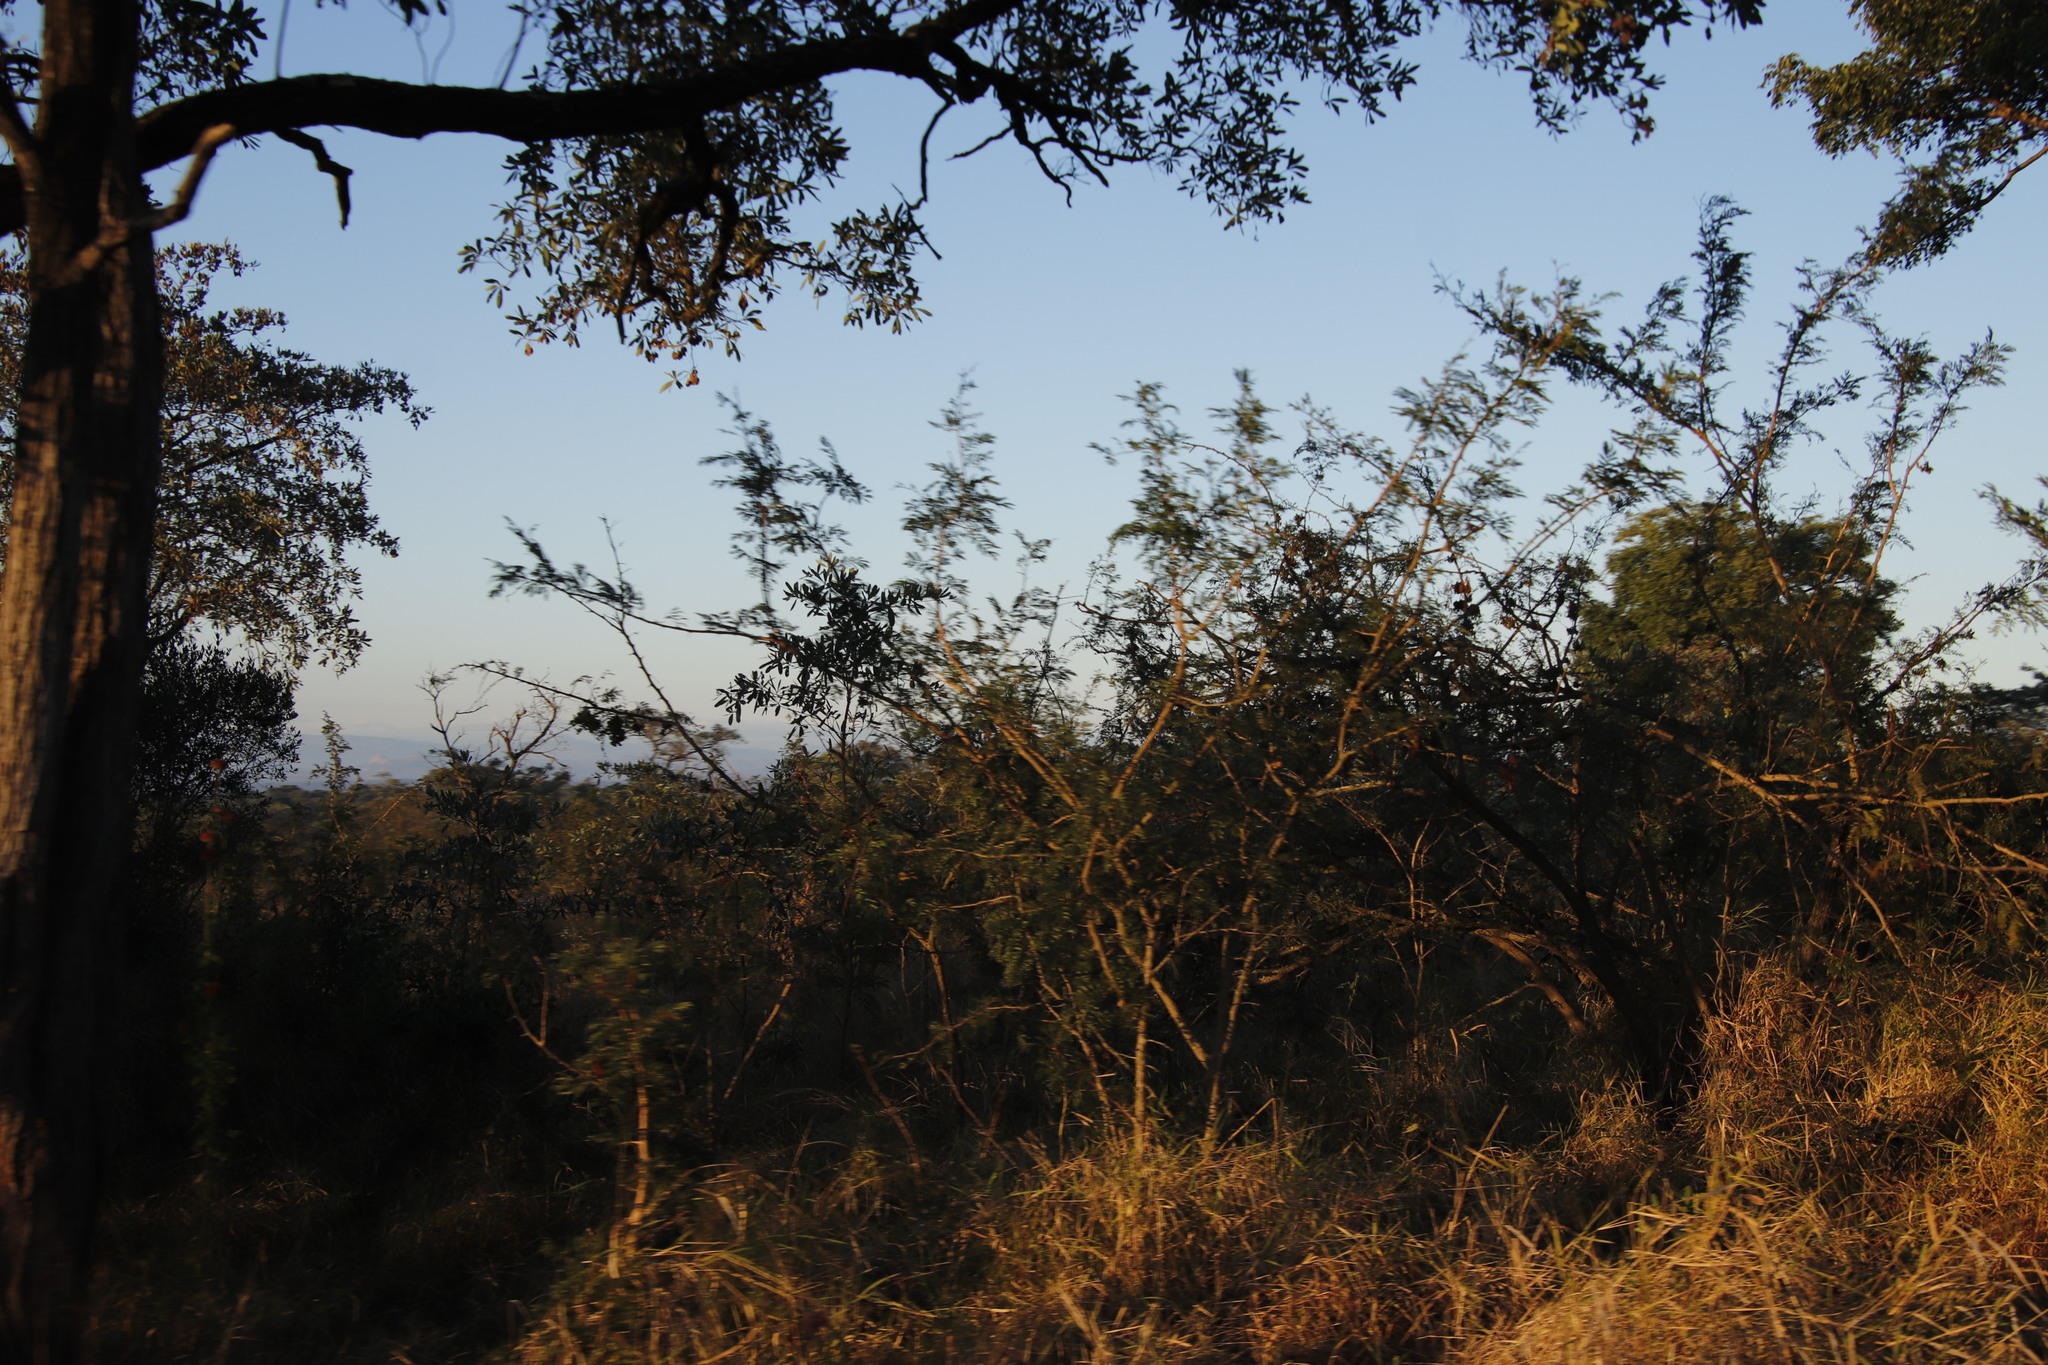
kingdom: Plantae
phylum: Tracheophyta
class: Magnoliopsida
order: Fabales
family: Fabaceae
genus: Dichrostachys
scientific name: Dichrostachys cinerea
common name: Sicklebush
